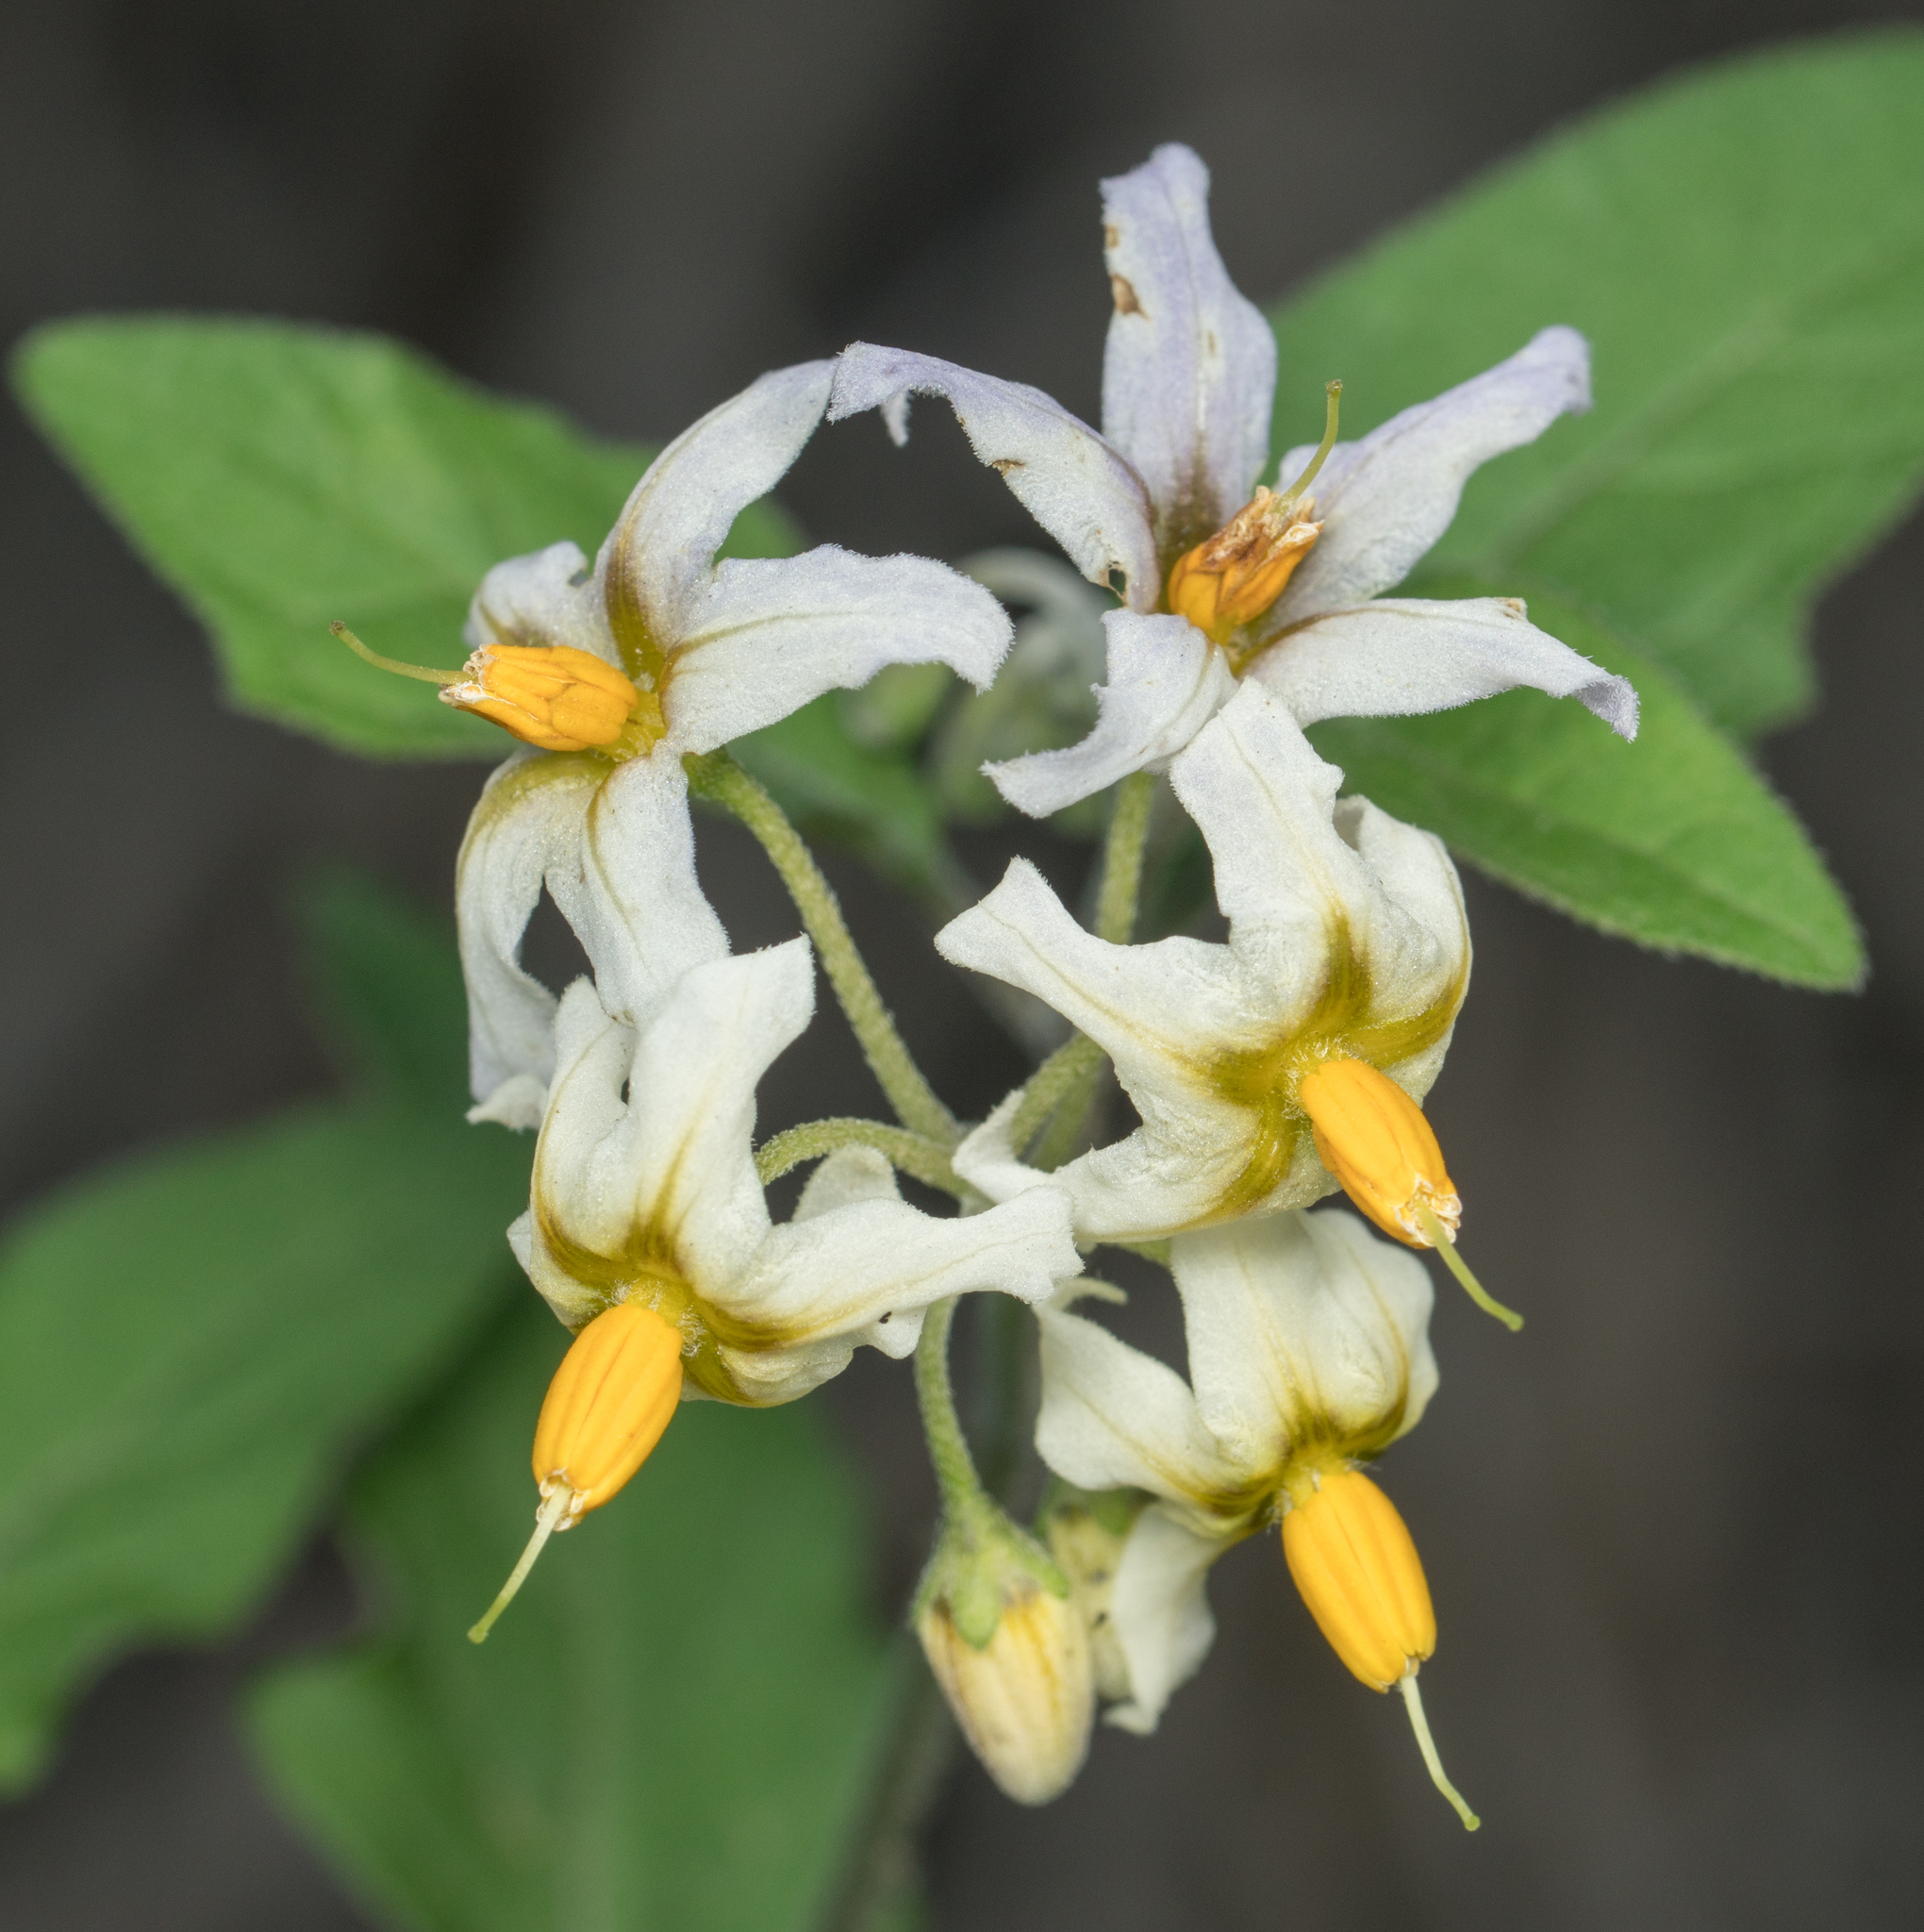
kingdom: Plantae
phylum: Tracheophyta
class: Magnoliopsida
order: Solanales
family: Solanaceae
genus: Solanum
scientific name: Solanum douglasii
